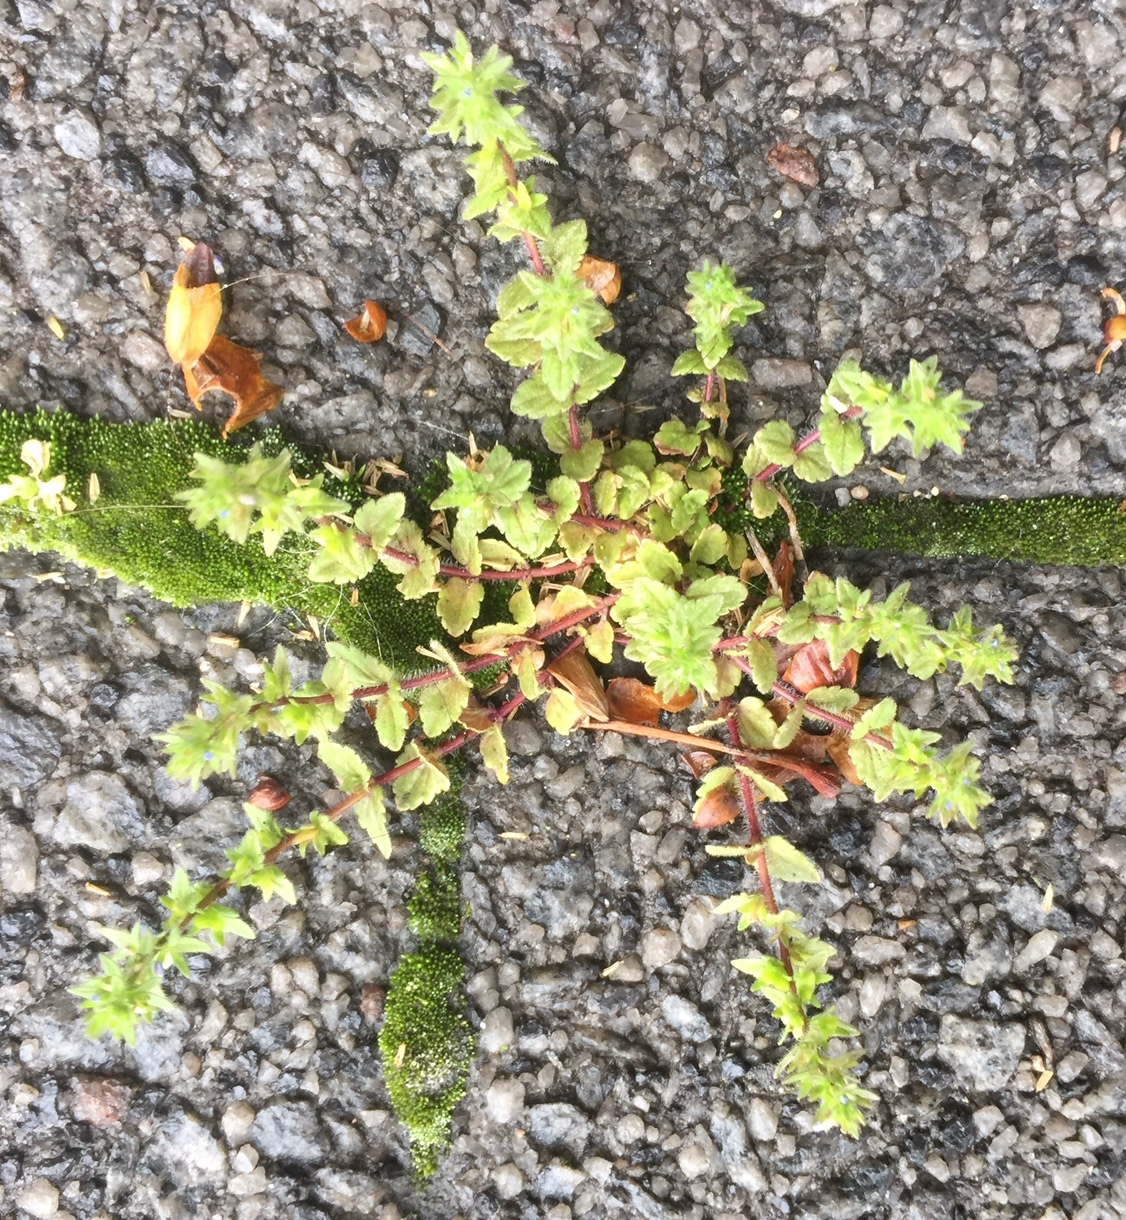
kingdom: Plantae
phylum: Tracheophyta
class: Magnoliopsida
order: Lamiales
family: Plantaginaceae
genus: Veronica
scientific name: Veronica arvensis
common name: Corn speedwell
